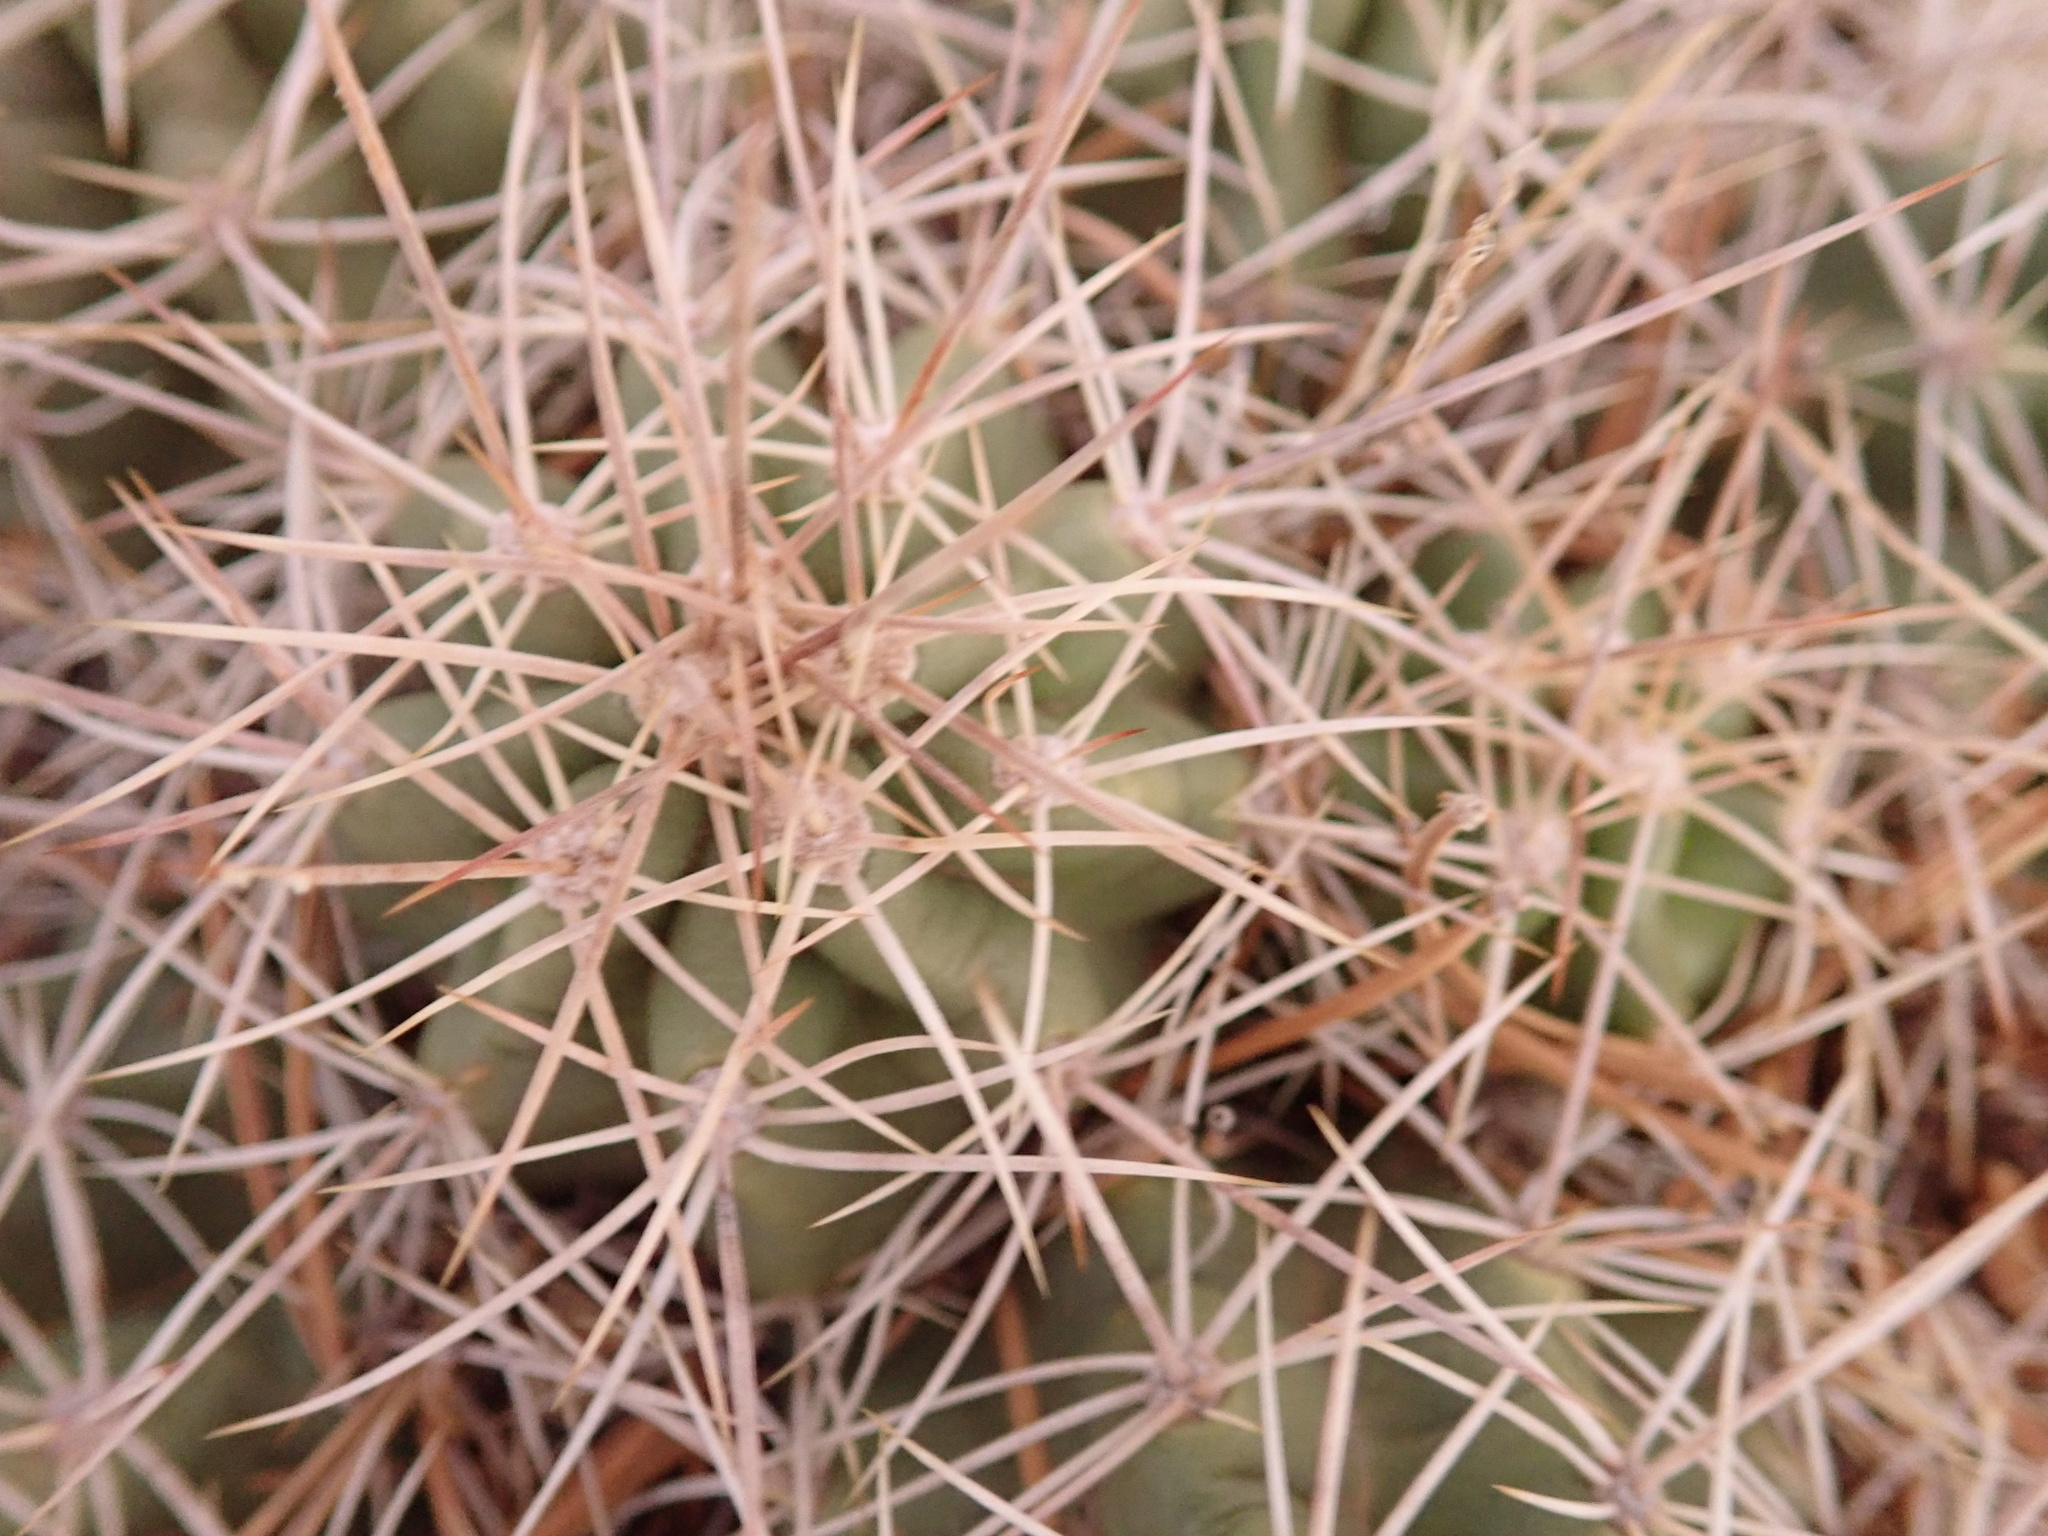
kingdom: Plantae
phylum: Tracheophyta
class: Magnoliopsida
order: Caryophyllales
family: Cactaceae
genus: Echinocereus
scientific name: Echinocereus triglochidiatus
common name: Claretcup hedgehog
